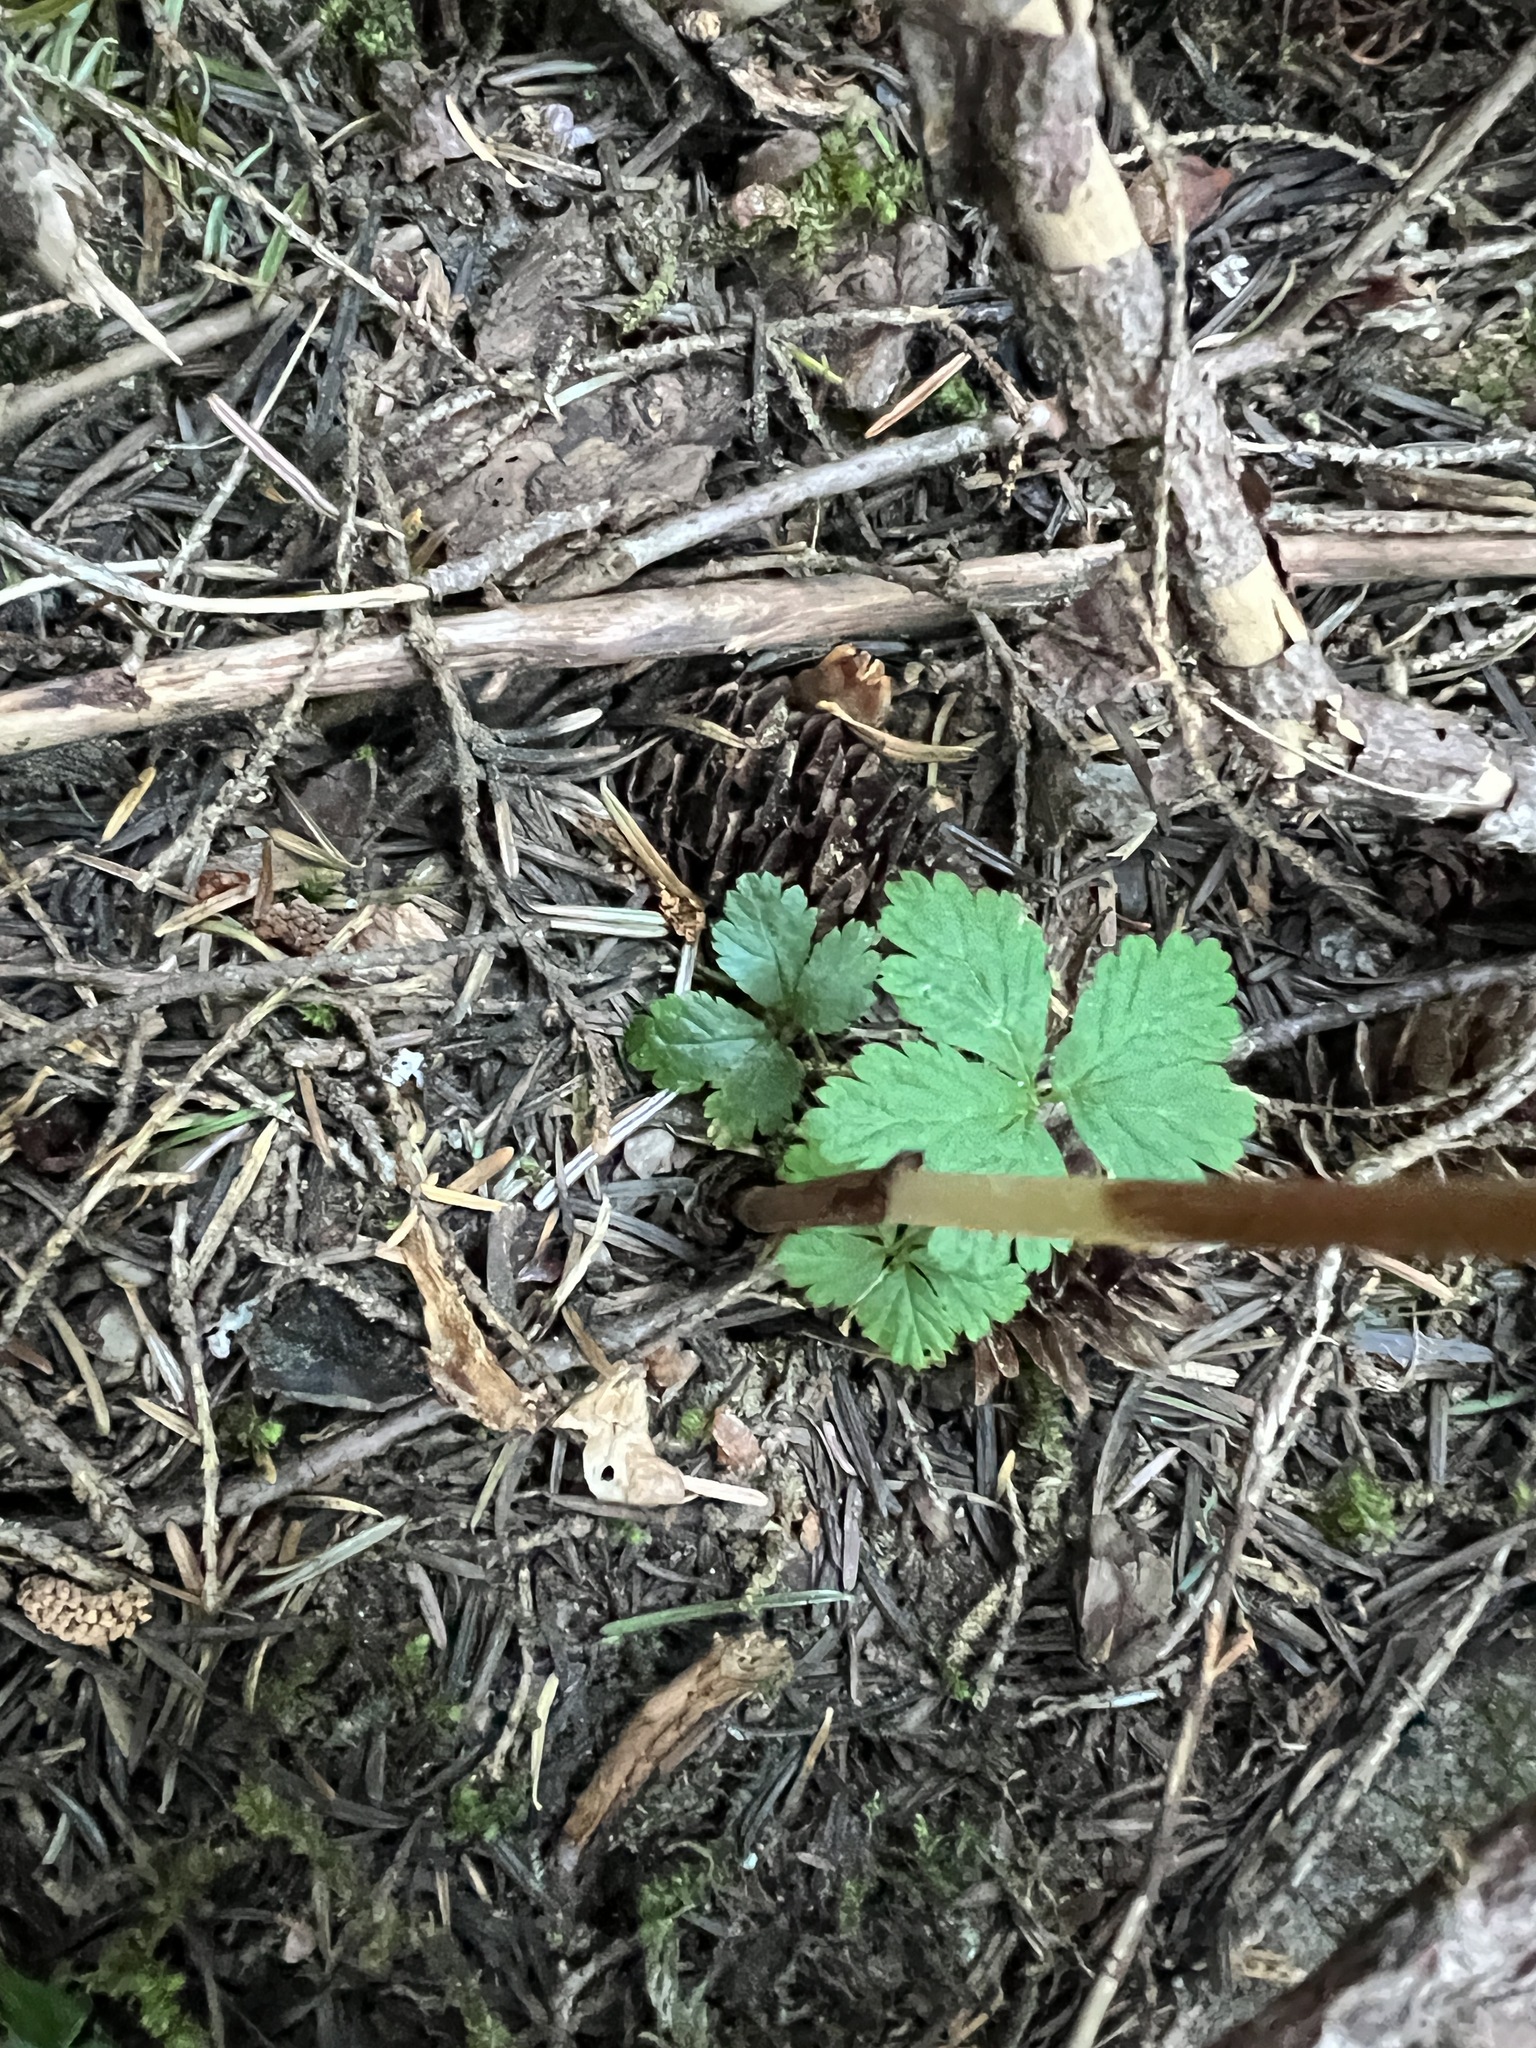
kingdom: Plantae
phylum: Tracheophyta
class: Liliopsida
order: Asparagales
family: Orchidaceae
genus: Corallorhiza
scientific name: Corallorhiza mertensiana
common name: Pacific coralroot
